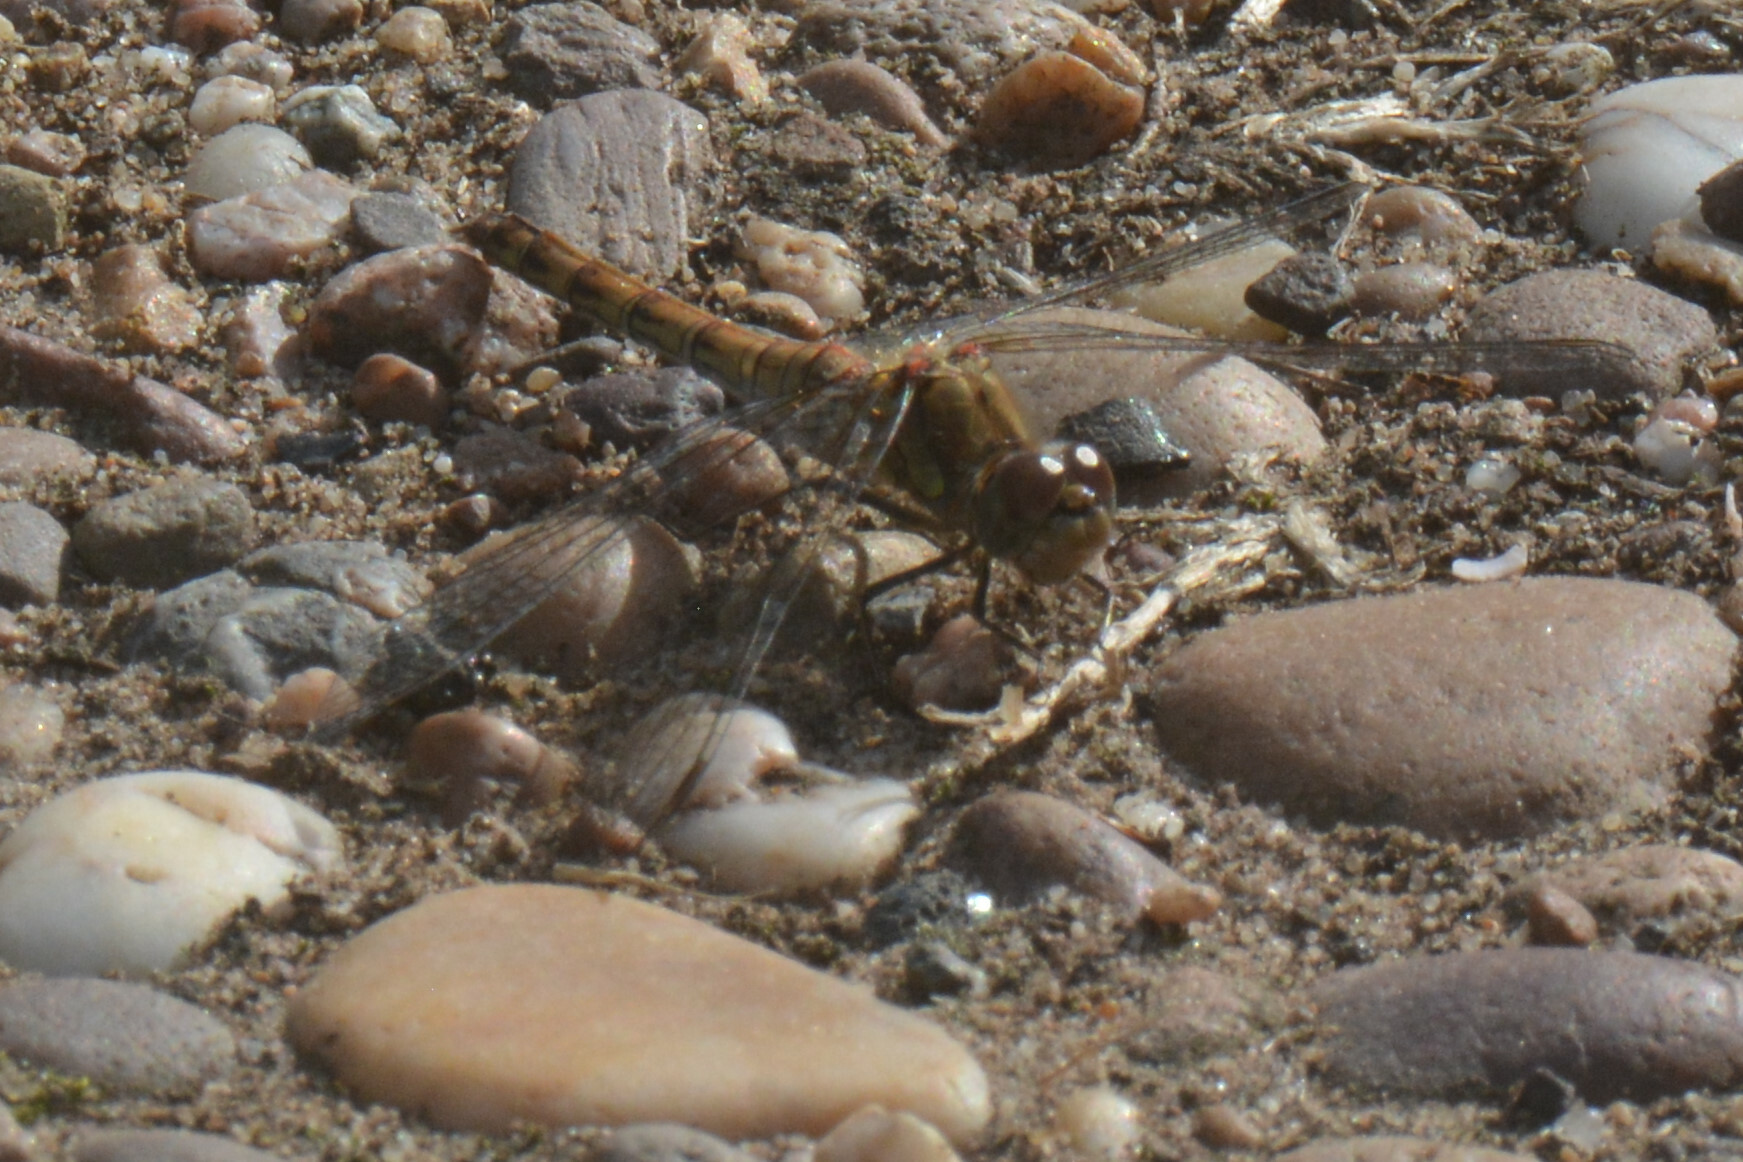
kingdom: Animalia
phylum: Arthropoda
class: Insecta
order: Odonata
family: Libellulidae
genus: Sympetrum
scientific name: Sympetrum striolatum
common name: Common darter
